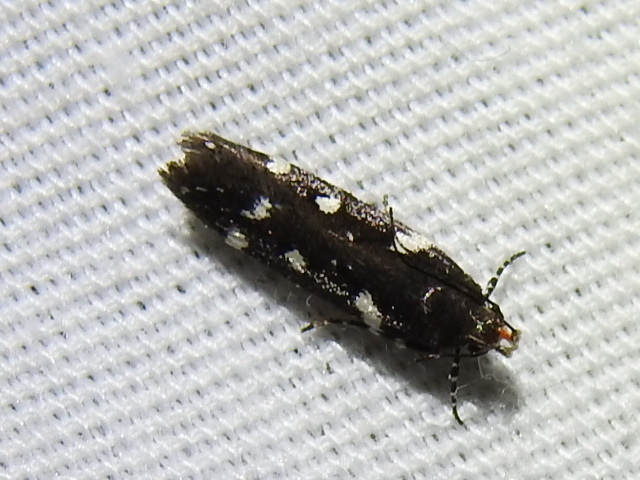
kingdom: Animalia
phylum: Arthropoda
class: Insecta
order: Lepidoptera
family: Gelechiidae
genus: Aroga
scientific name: Aroga compositella
